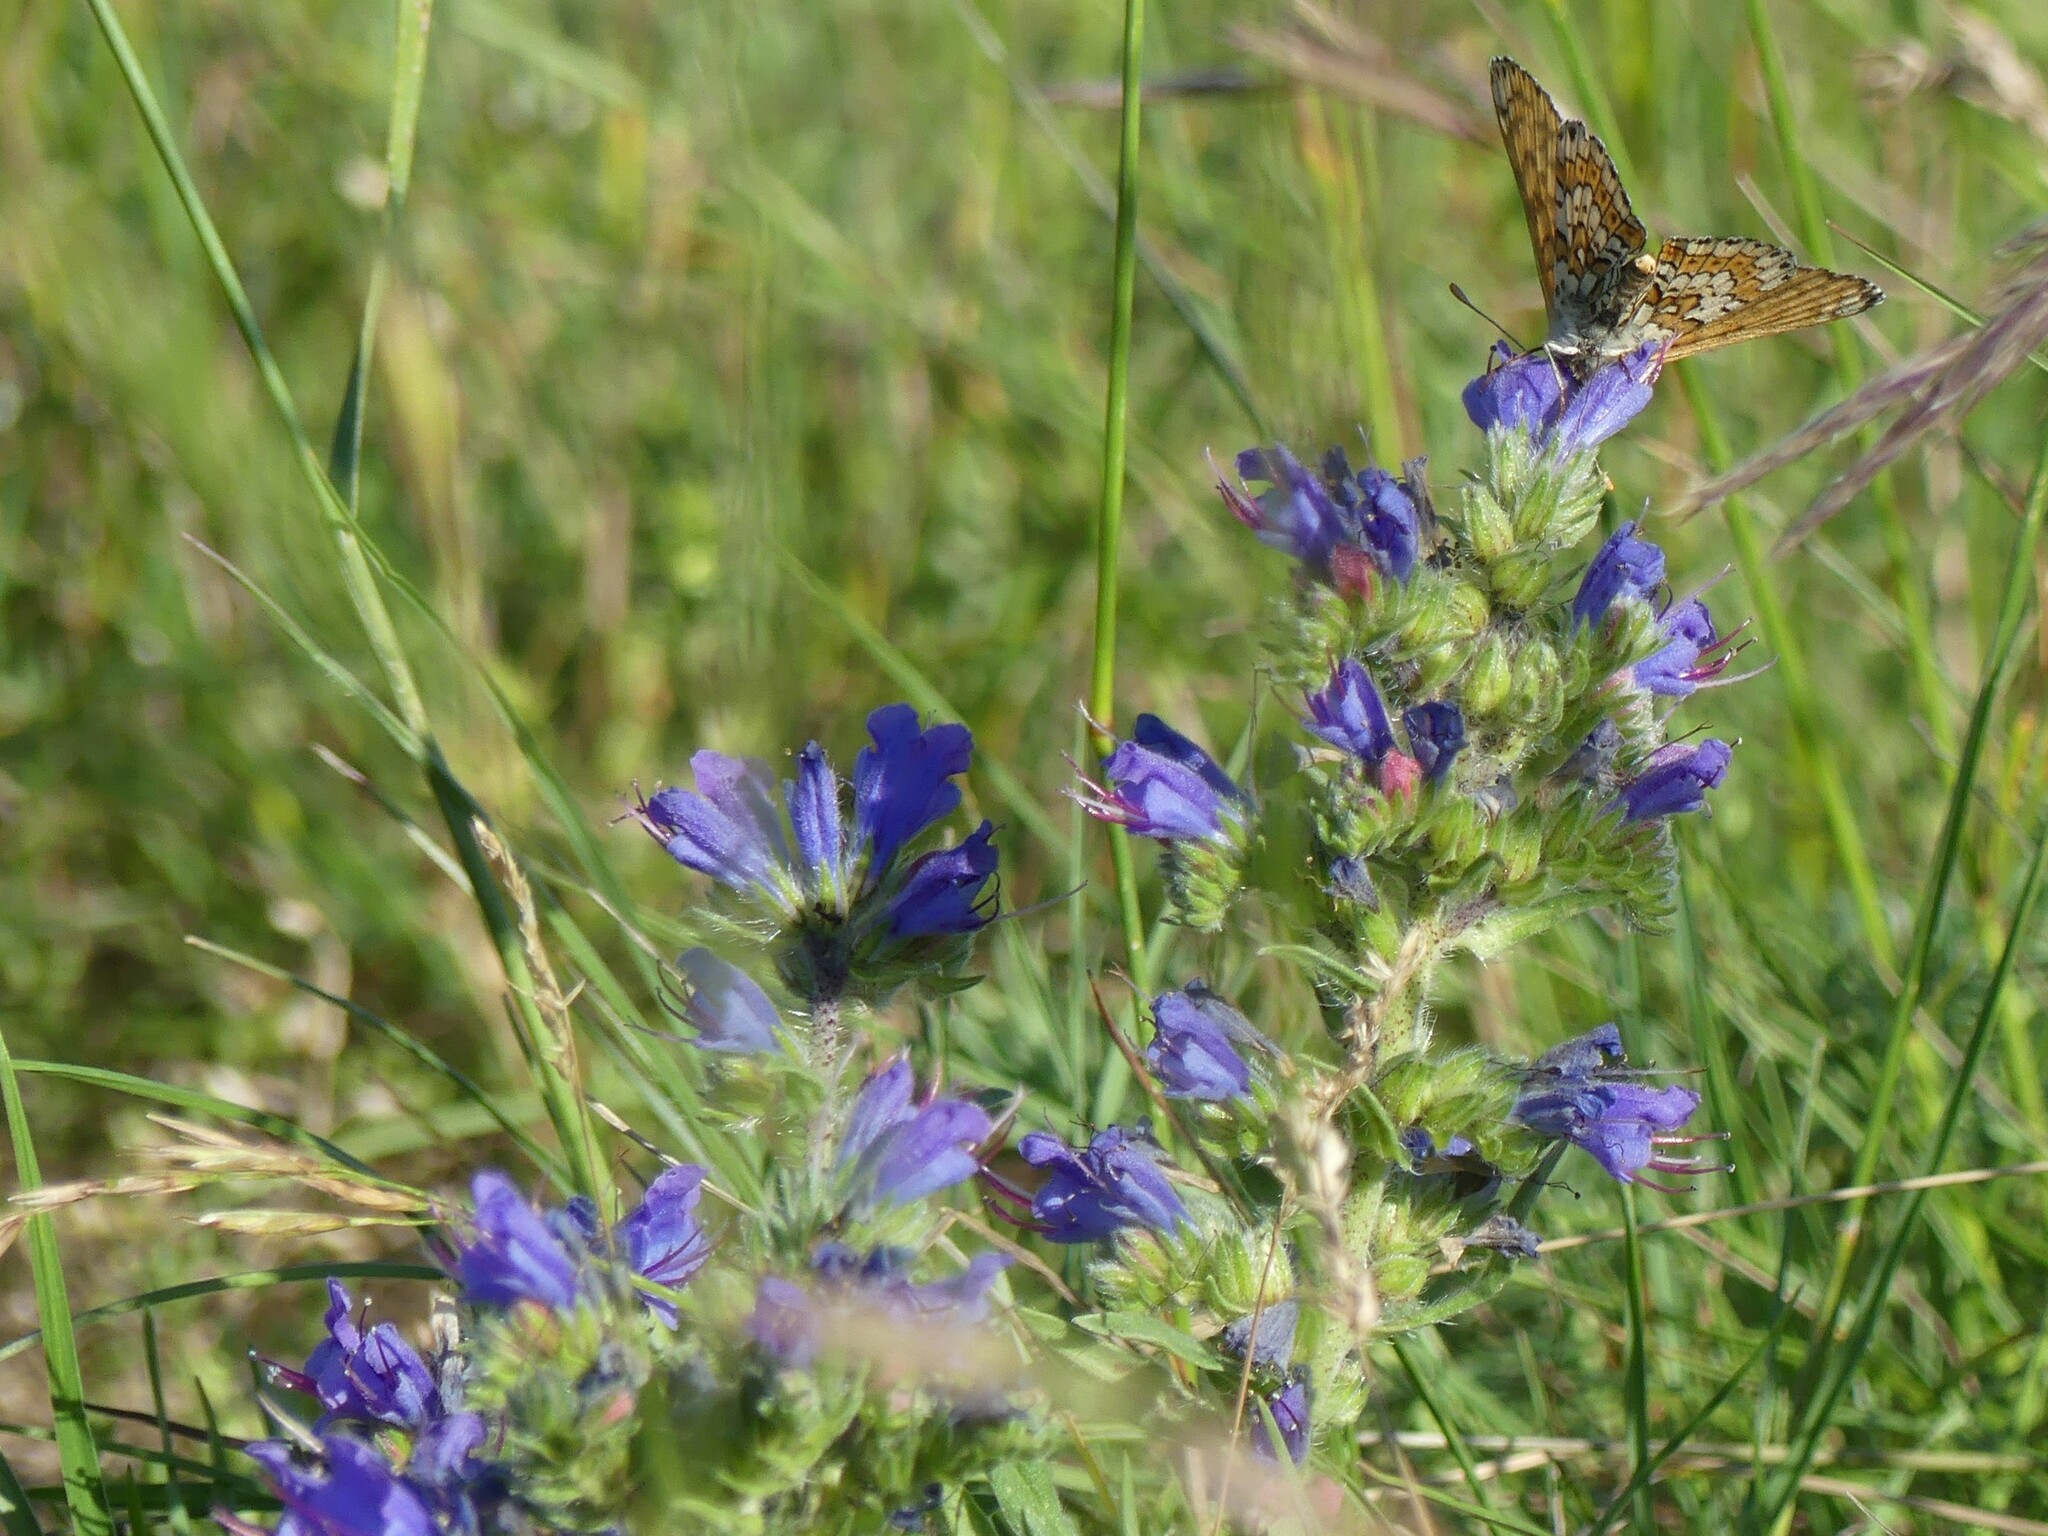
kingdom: Plantae
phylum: Tracheophyta
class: Magnoliopsida
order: Boraginales
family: Boraginaceae
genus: Echium
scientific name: Echium vulgare
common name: Common viper's bugloss
